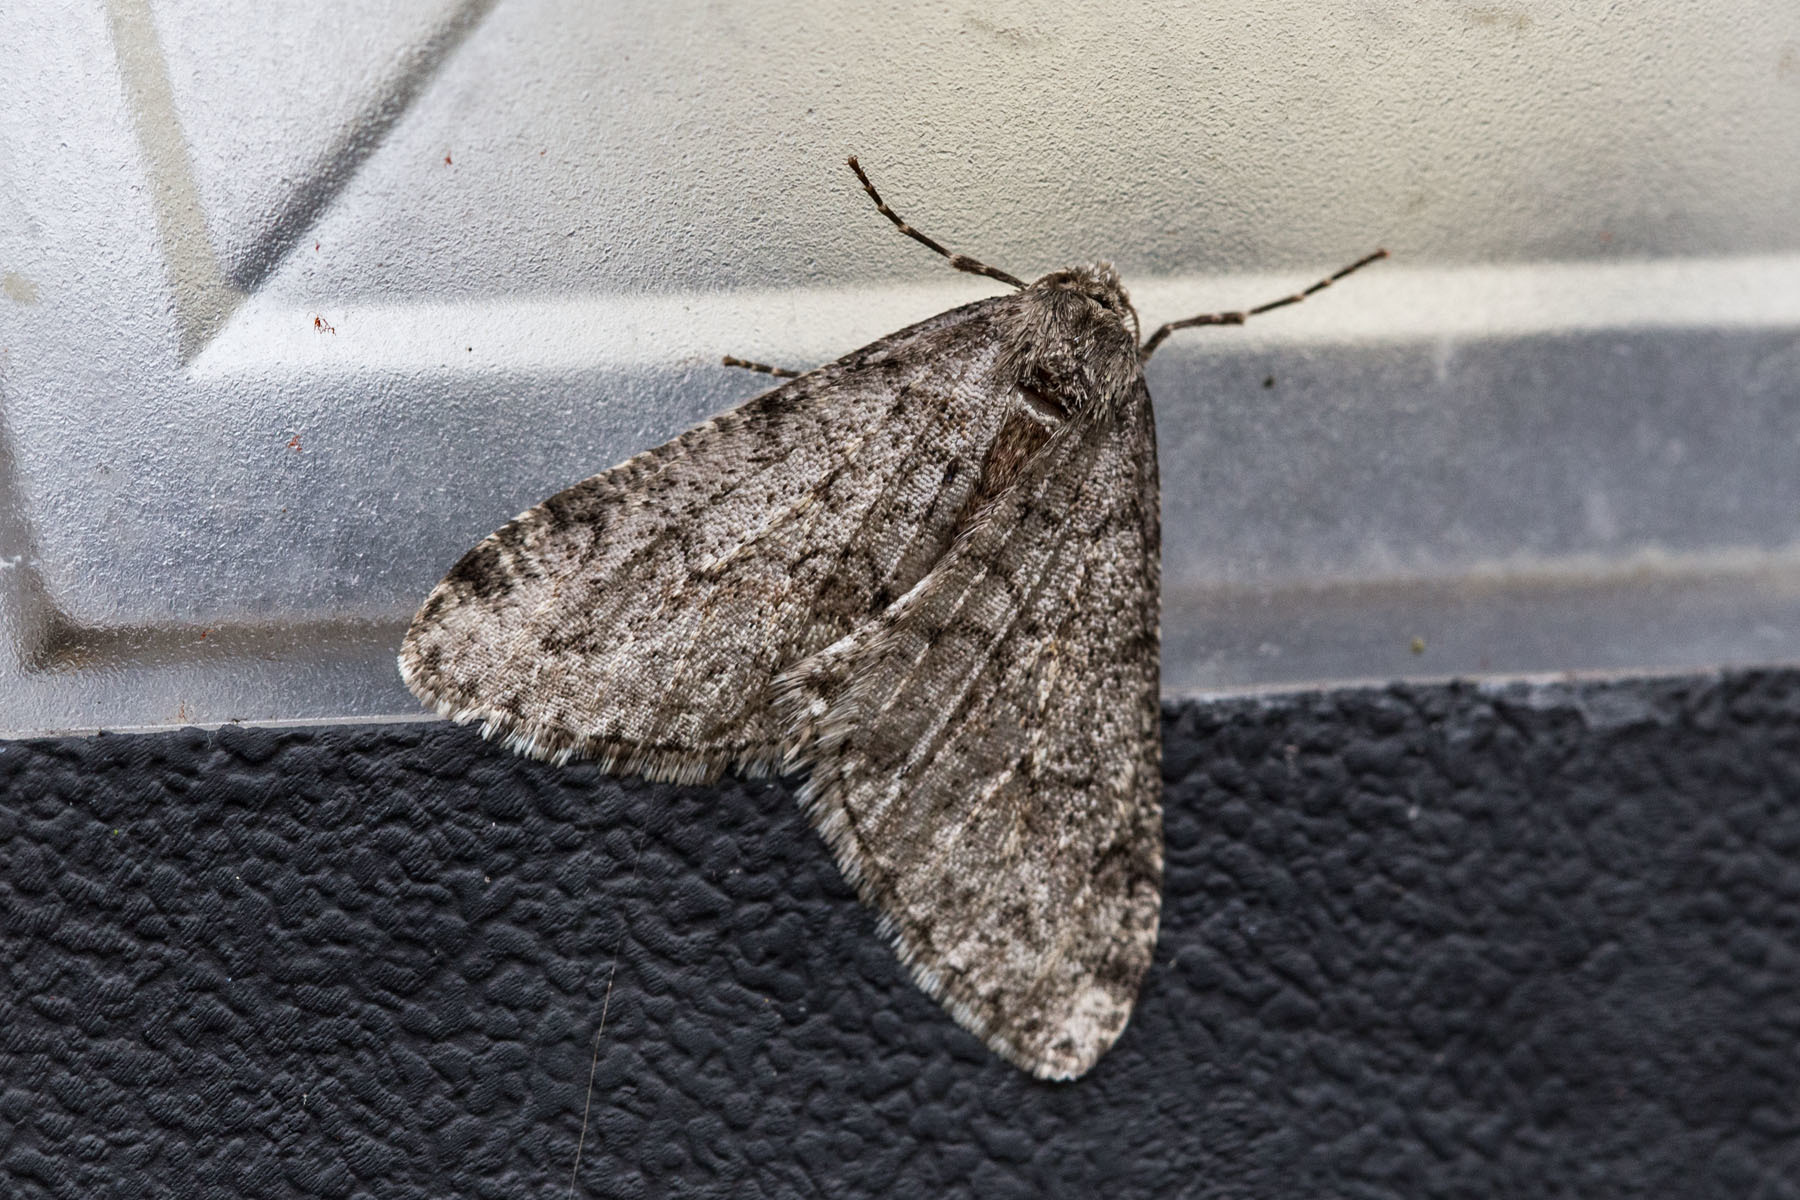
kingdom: Animalia
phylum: Arthropoda
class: Insecta
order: Lepidoptera
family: Geometridae
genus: Phigalia
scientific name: Phigalia strigataria
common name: Small phigalia
